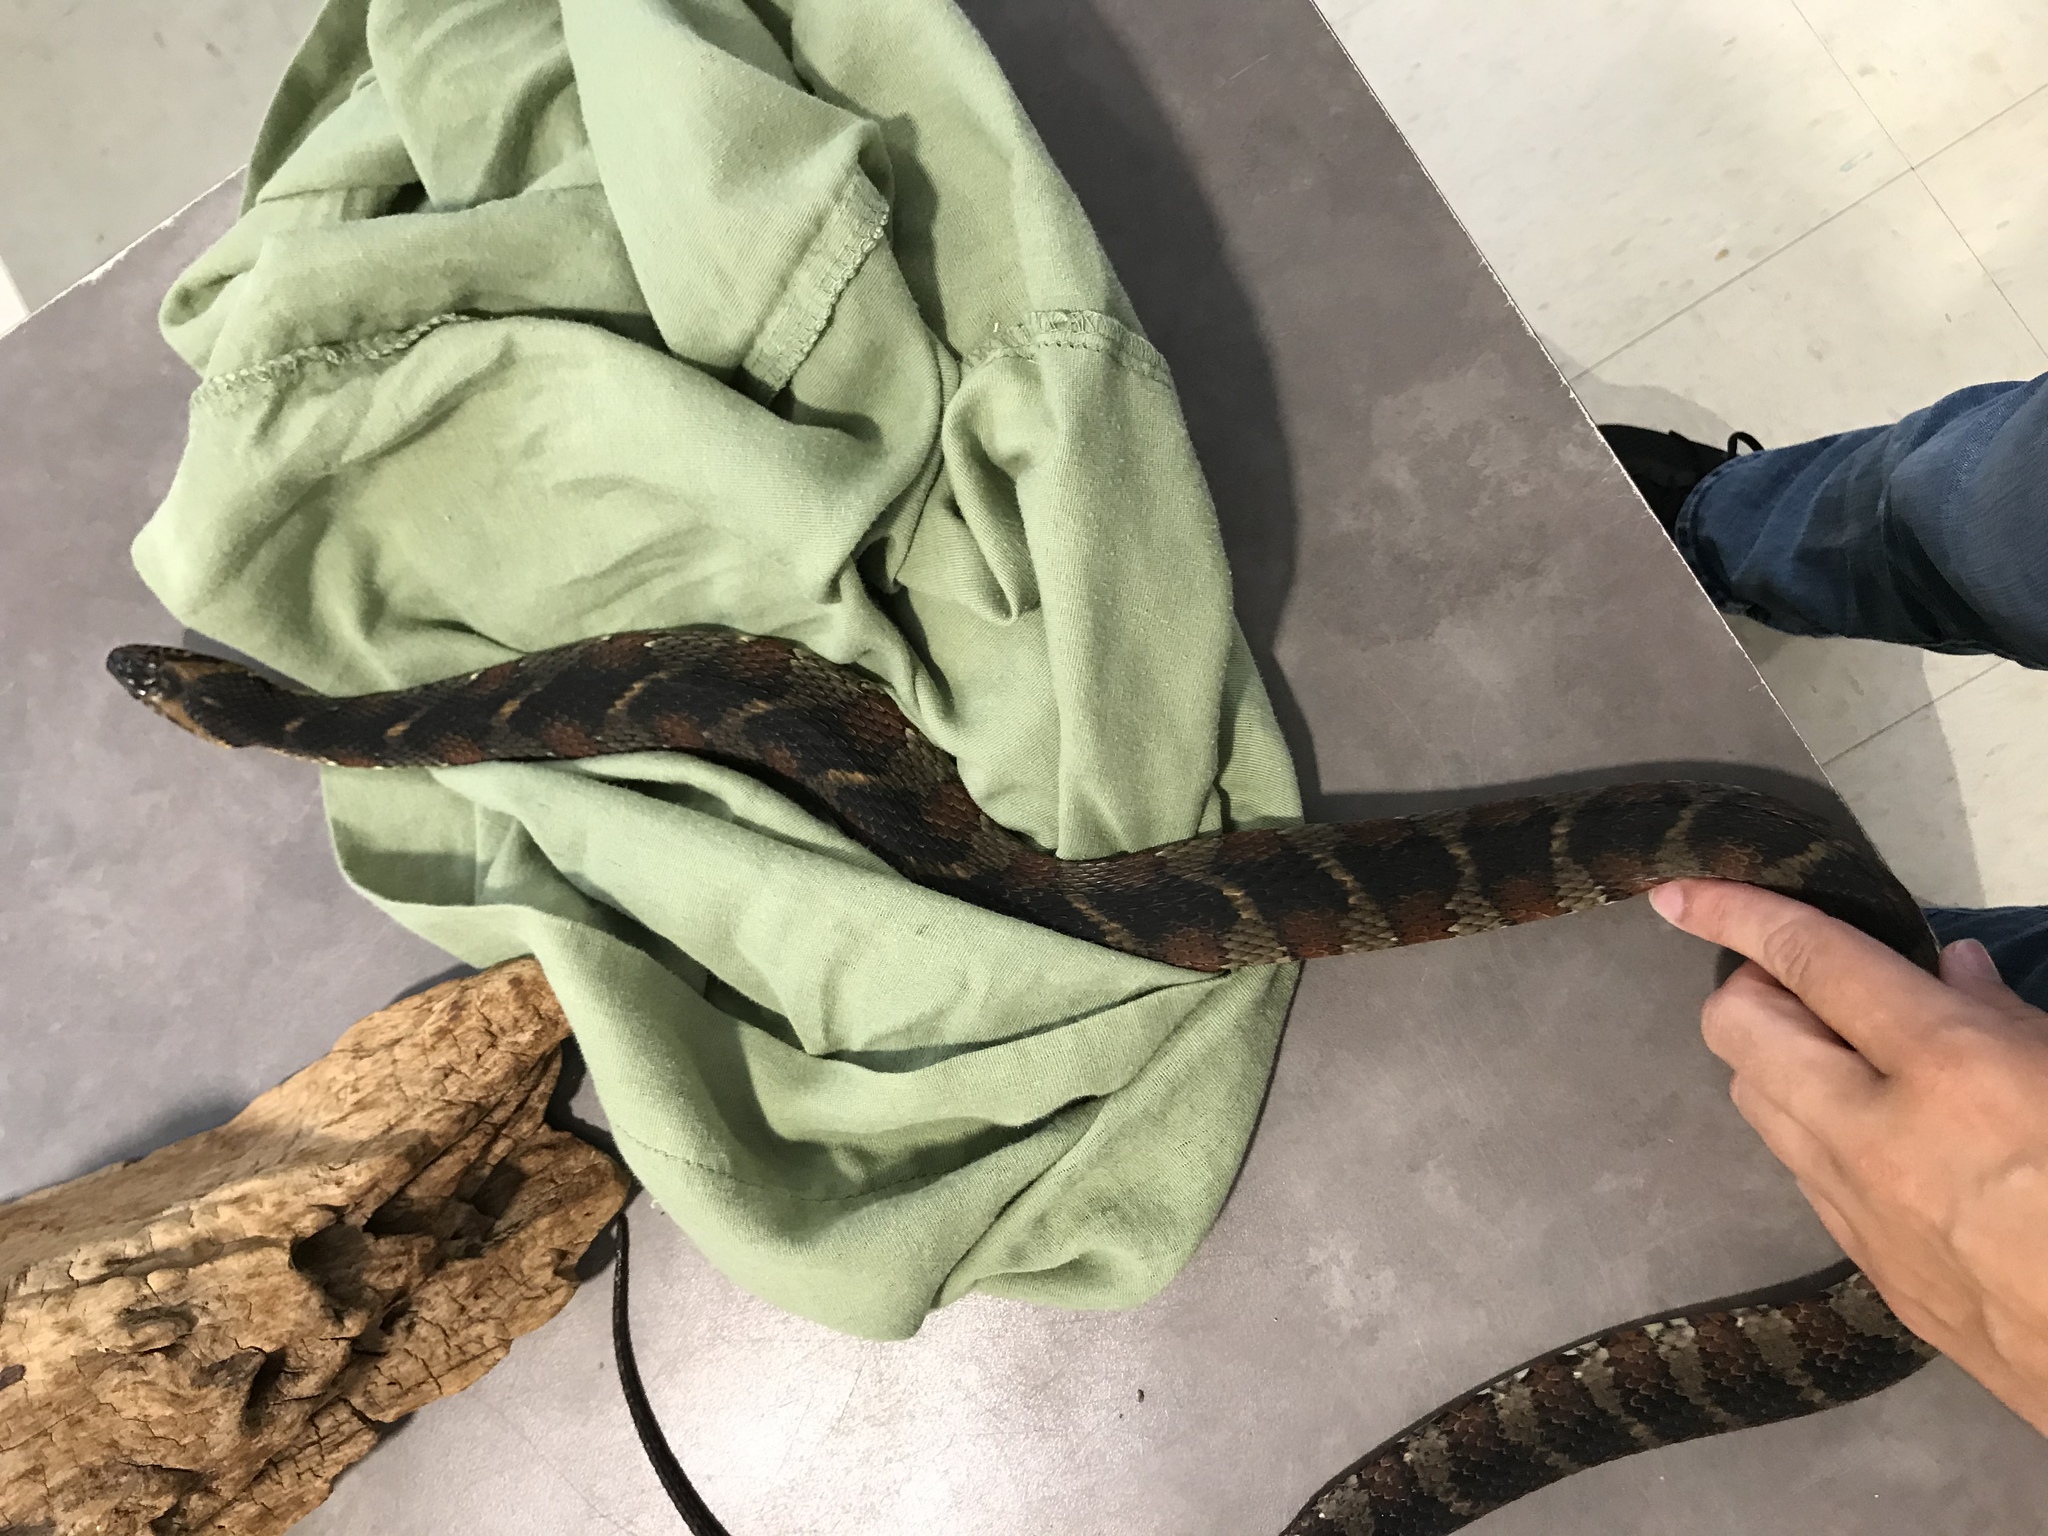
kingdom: Animalia
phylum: Chordata
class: Squamata
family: Colubridae
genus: Nerodia
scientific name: Nerodia fasciata
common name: Southern water snake
